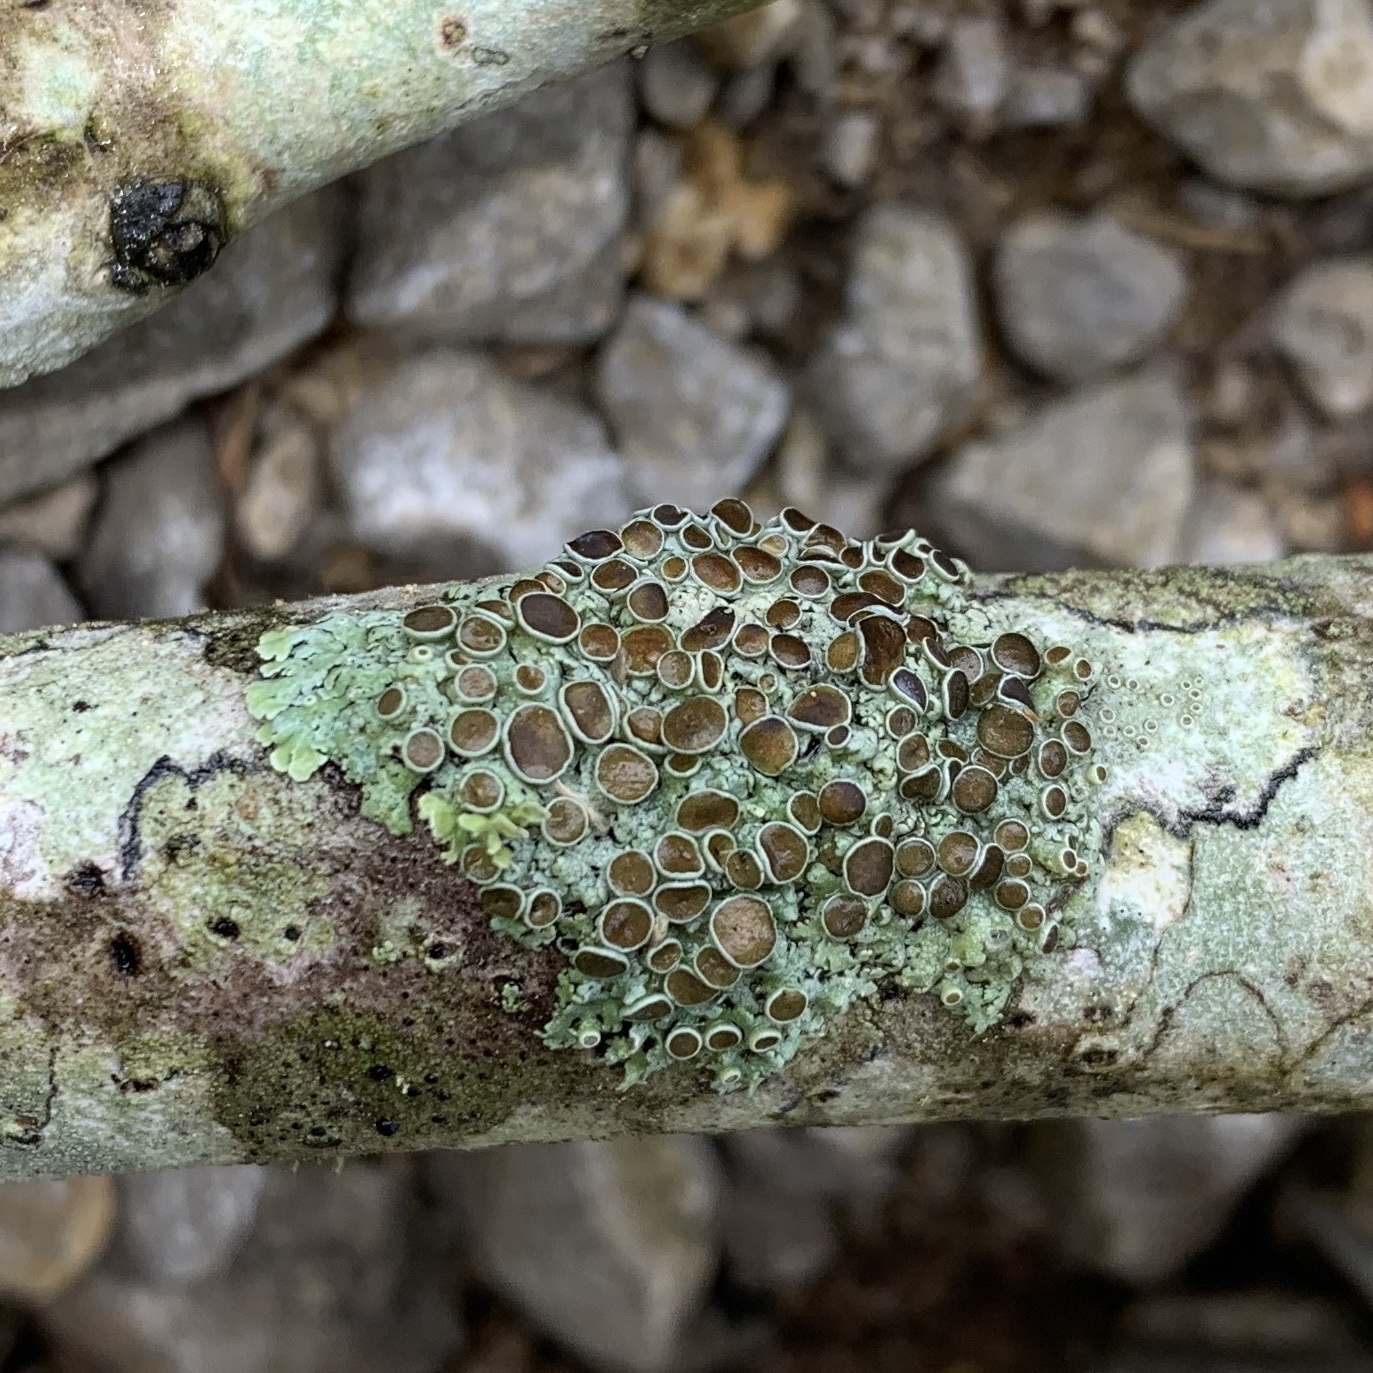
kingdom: Fungi
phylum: Ascomycota
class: Lecanoromycetes
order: Caliciales
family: Physciaceae
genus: Physcia
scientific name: Physcia pumilior
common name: Lesser gray legs
